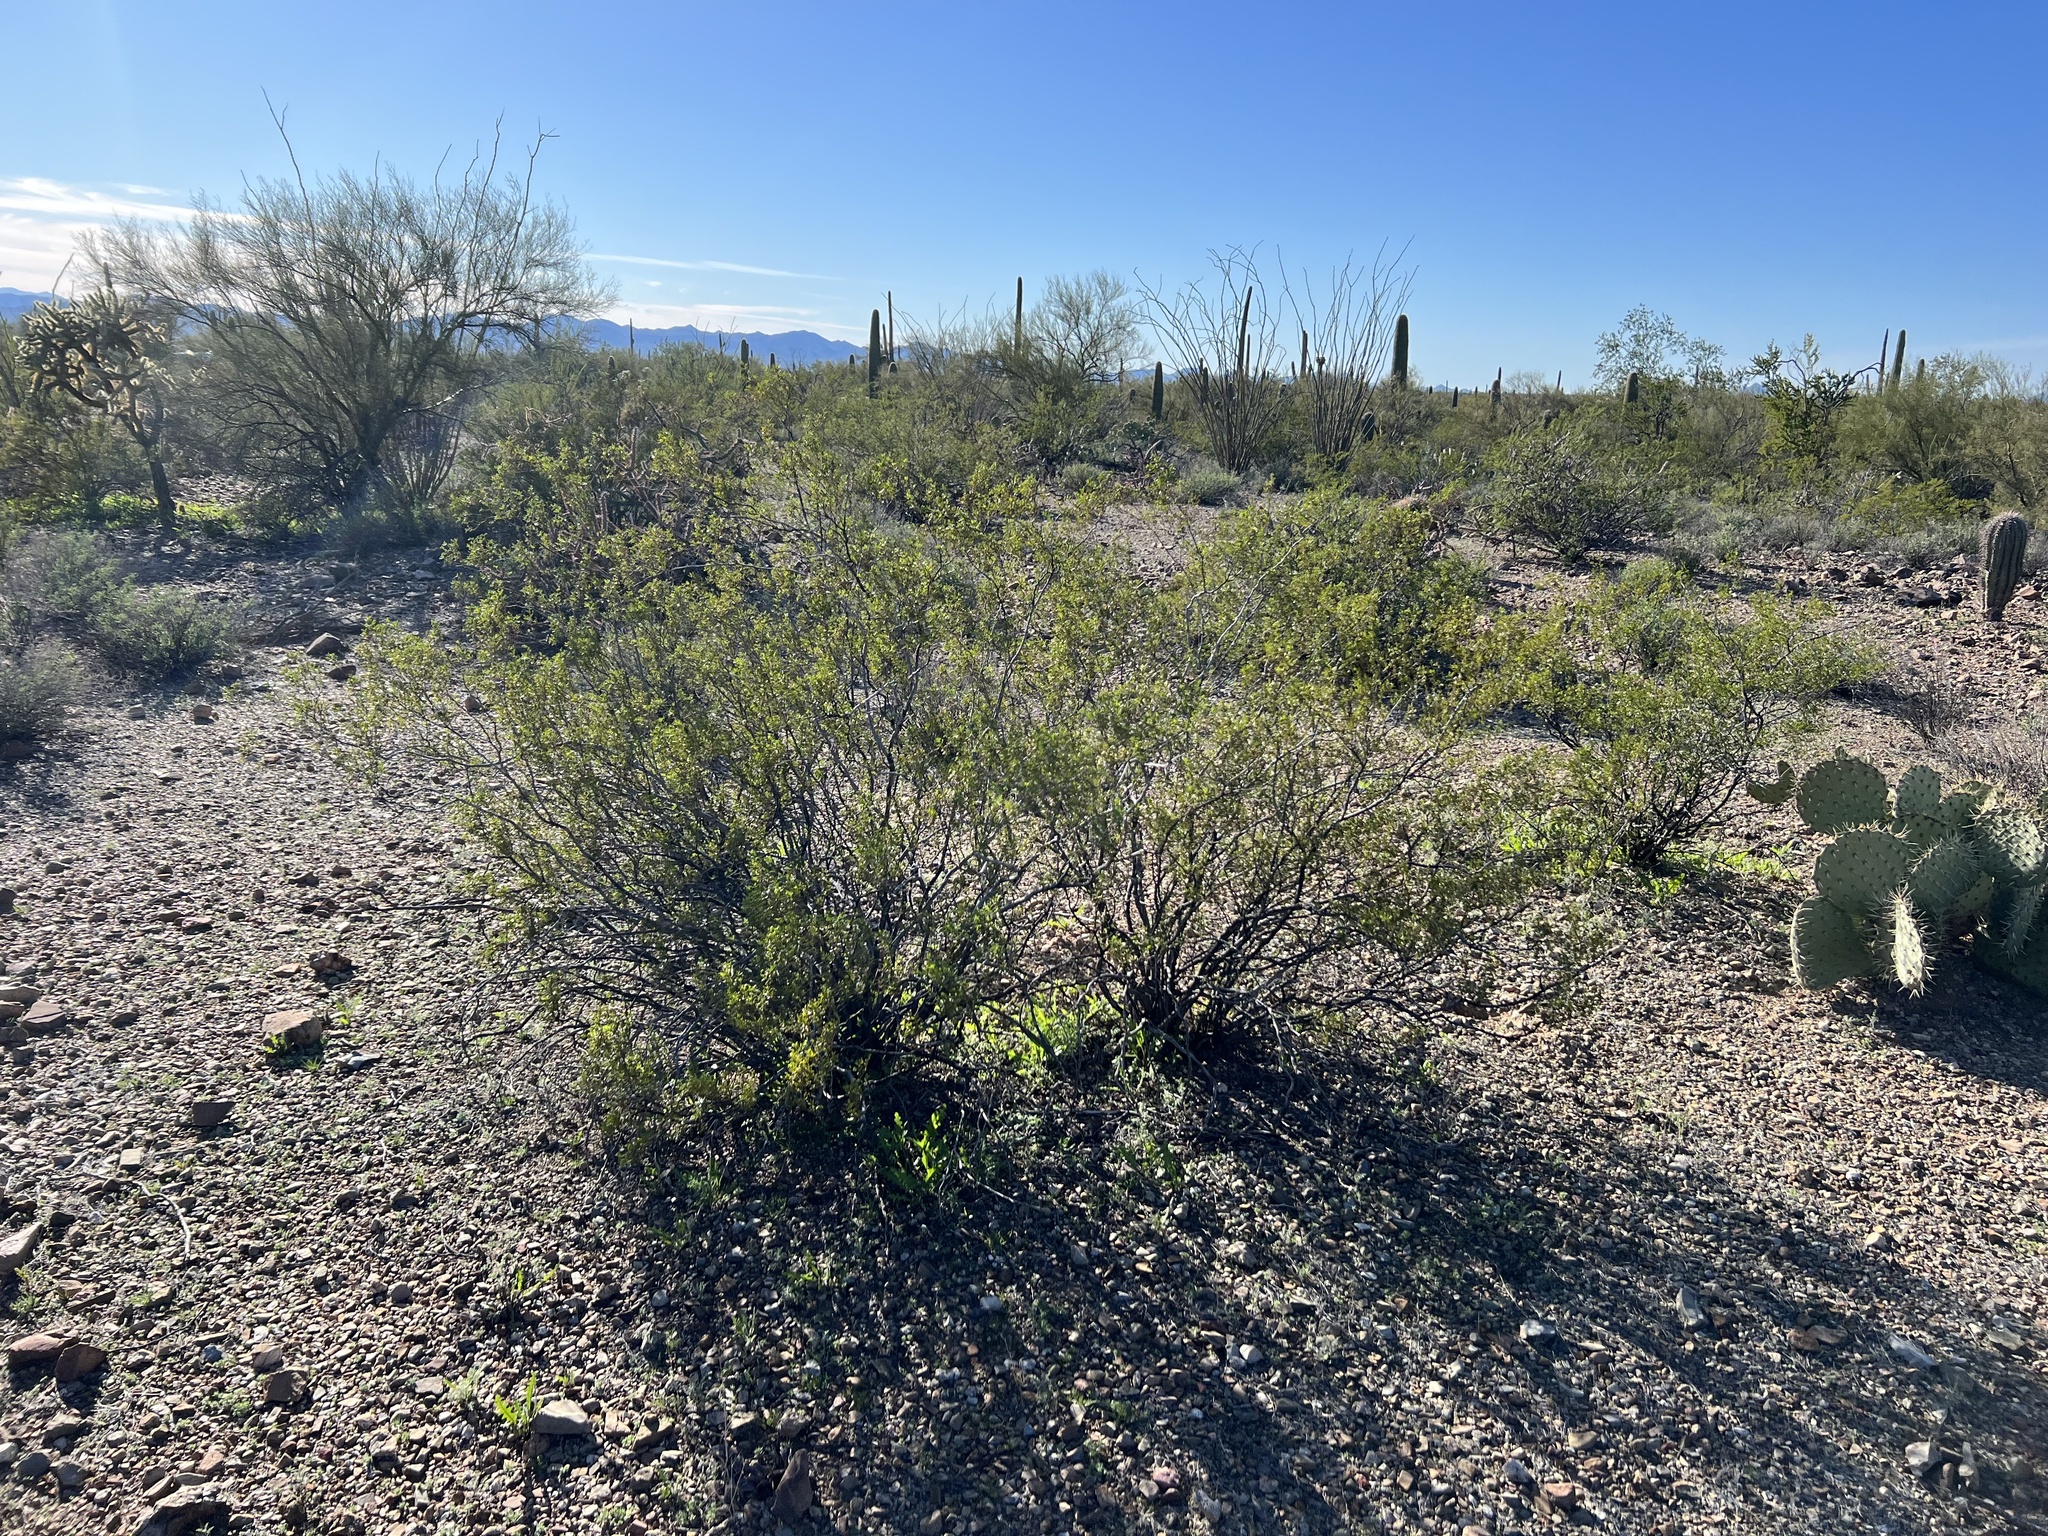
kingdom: Plantae
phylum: Tracheophyta
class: Magnoliopsida
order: Zygophyllales
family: Zygophyllaceae
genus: Larrea
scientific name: Larrea tridentata
